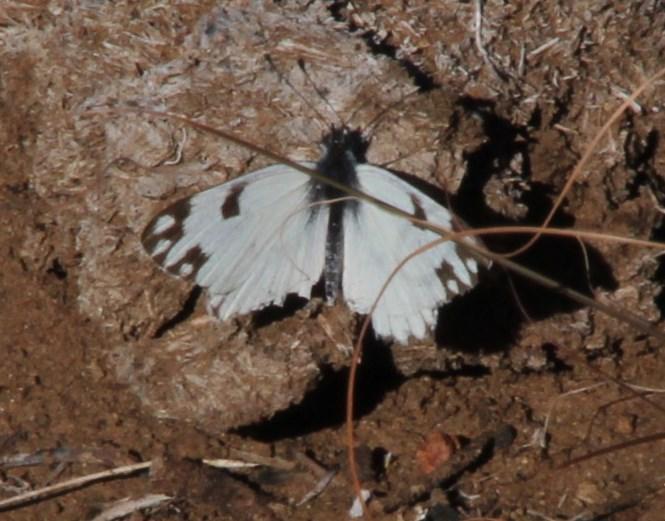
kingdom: Animalia
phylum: Arthropoda
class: Insecta
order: Lepidoptera
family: Pieridae
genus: Pontia
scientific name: Pontia helice
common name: Meadow white
